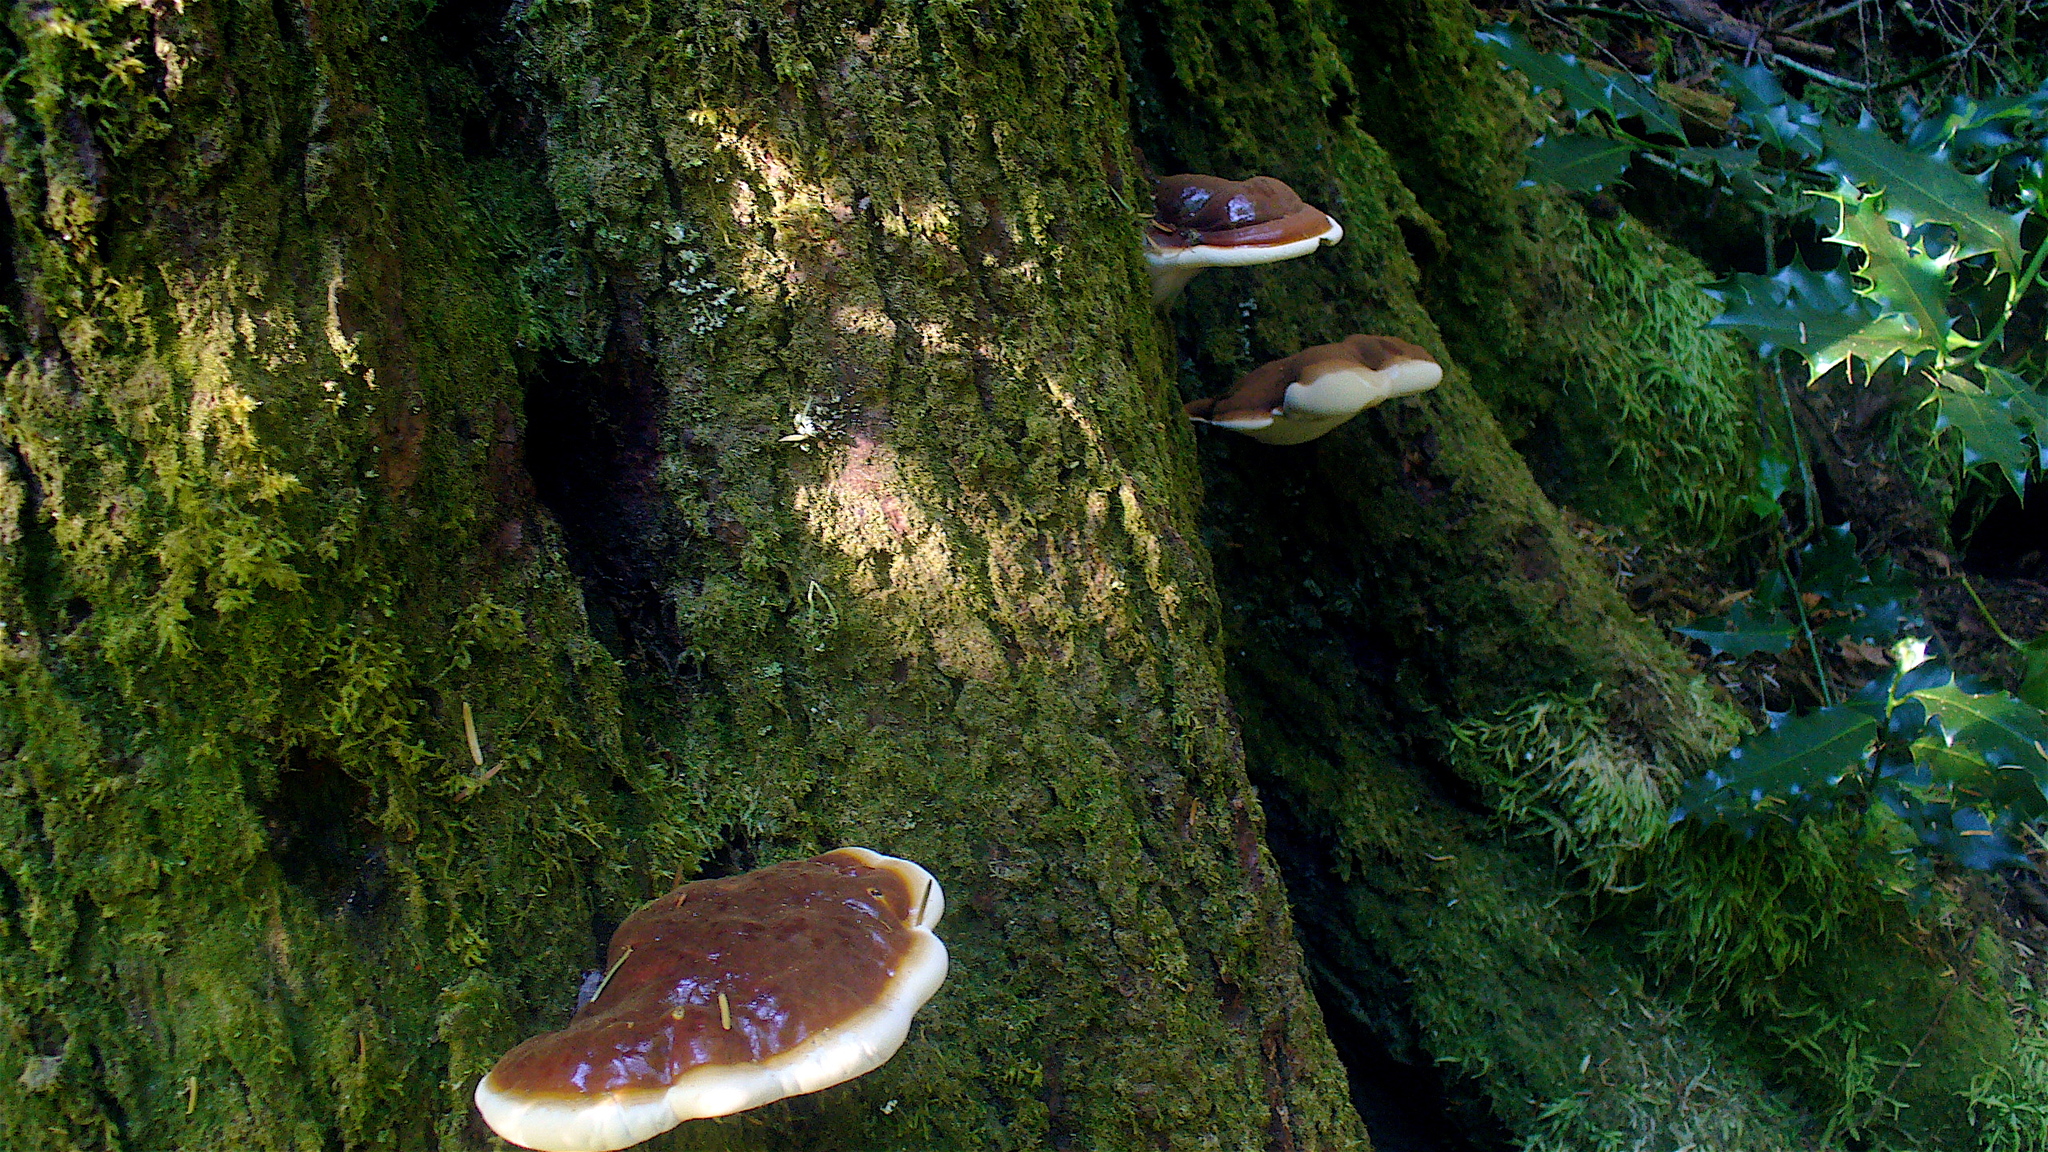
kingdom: Fungi
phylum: Basidiomycota
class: Agaricomycetes
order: Polyporales
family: Polyporaceae
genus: Ganoderma
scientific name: Ganoderma oregonense
